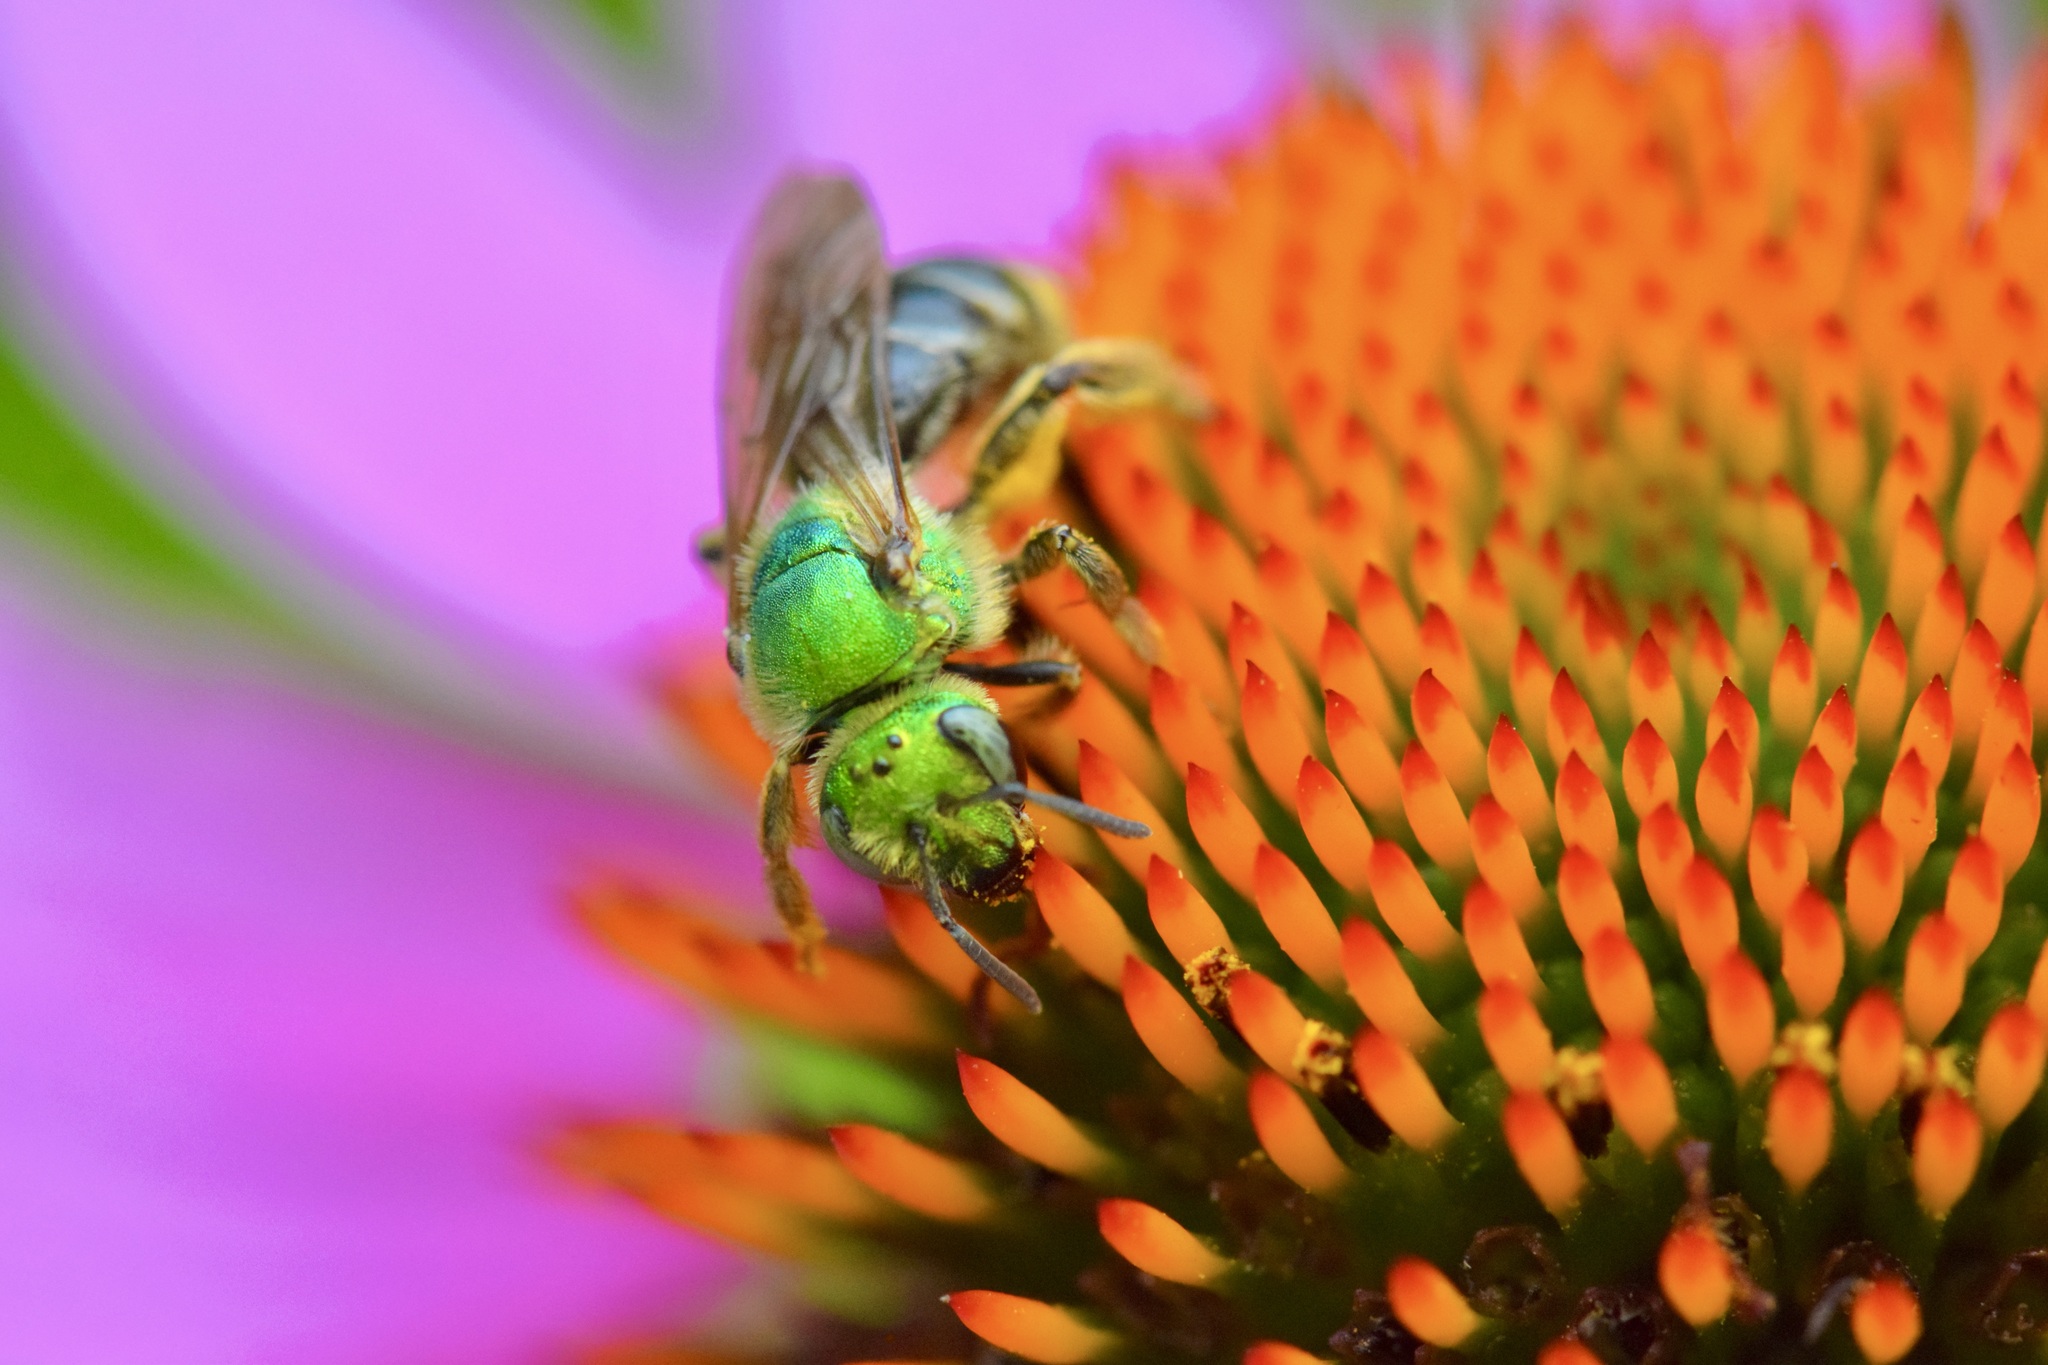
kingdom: Animalia
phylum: Arthropoda
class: Insecta
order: Hymenoptera
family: Halictidae
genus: Agapostemon
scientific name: Agapostemon virescens
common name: Bicolored striped sweat bee
